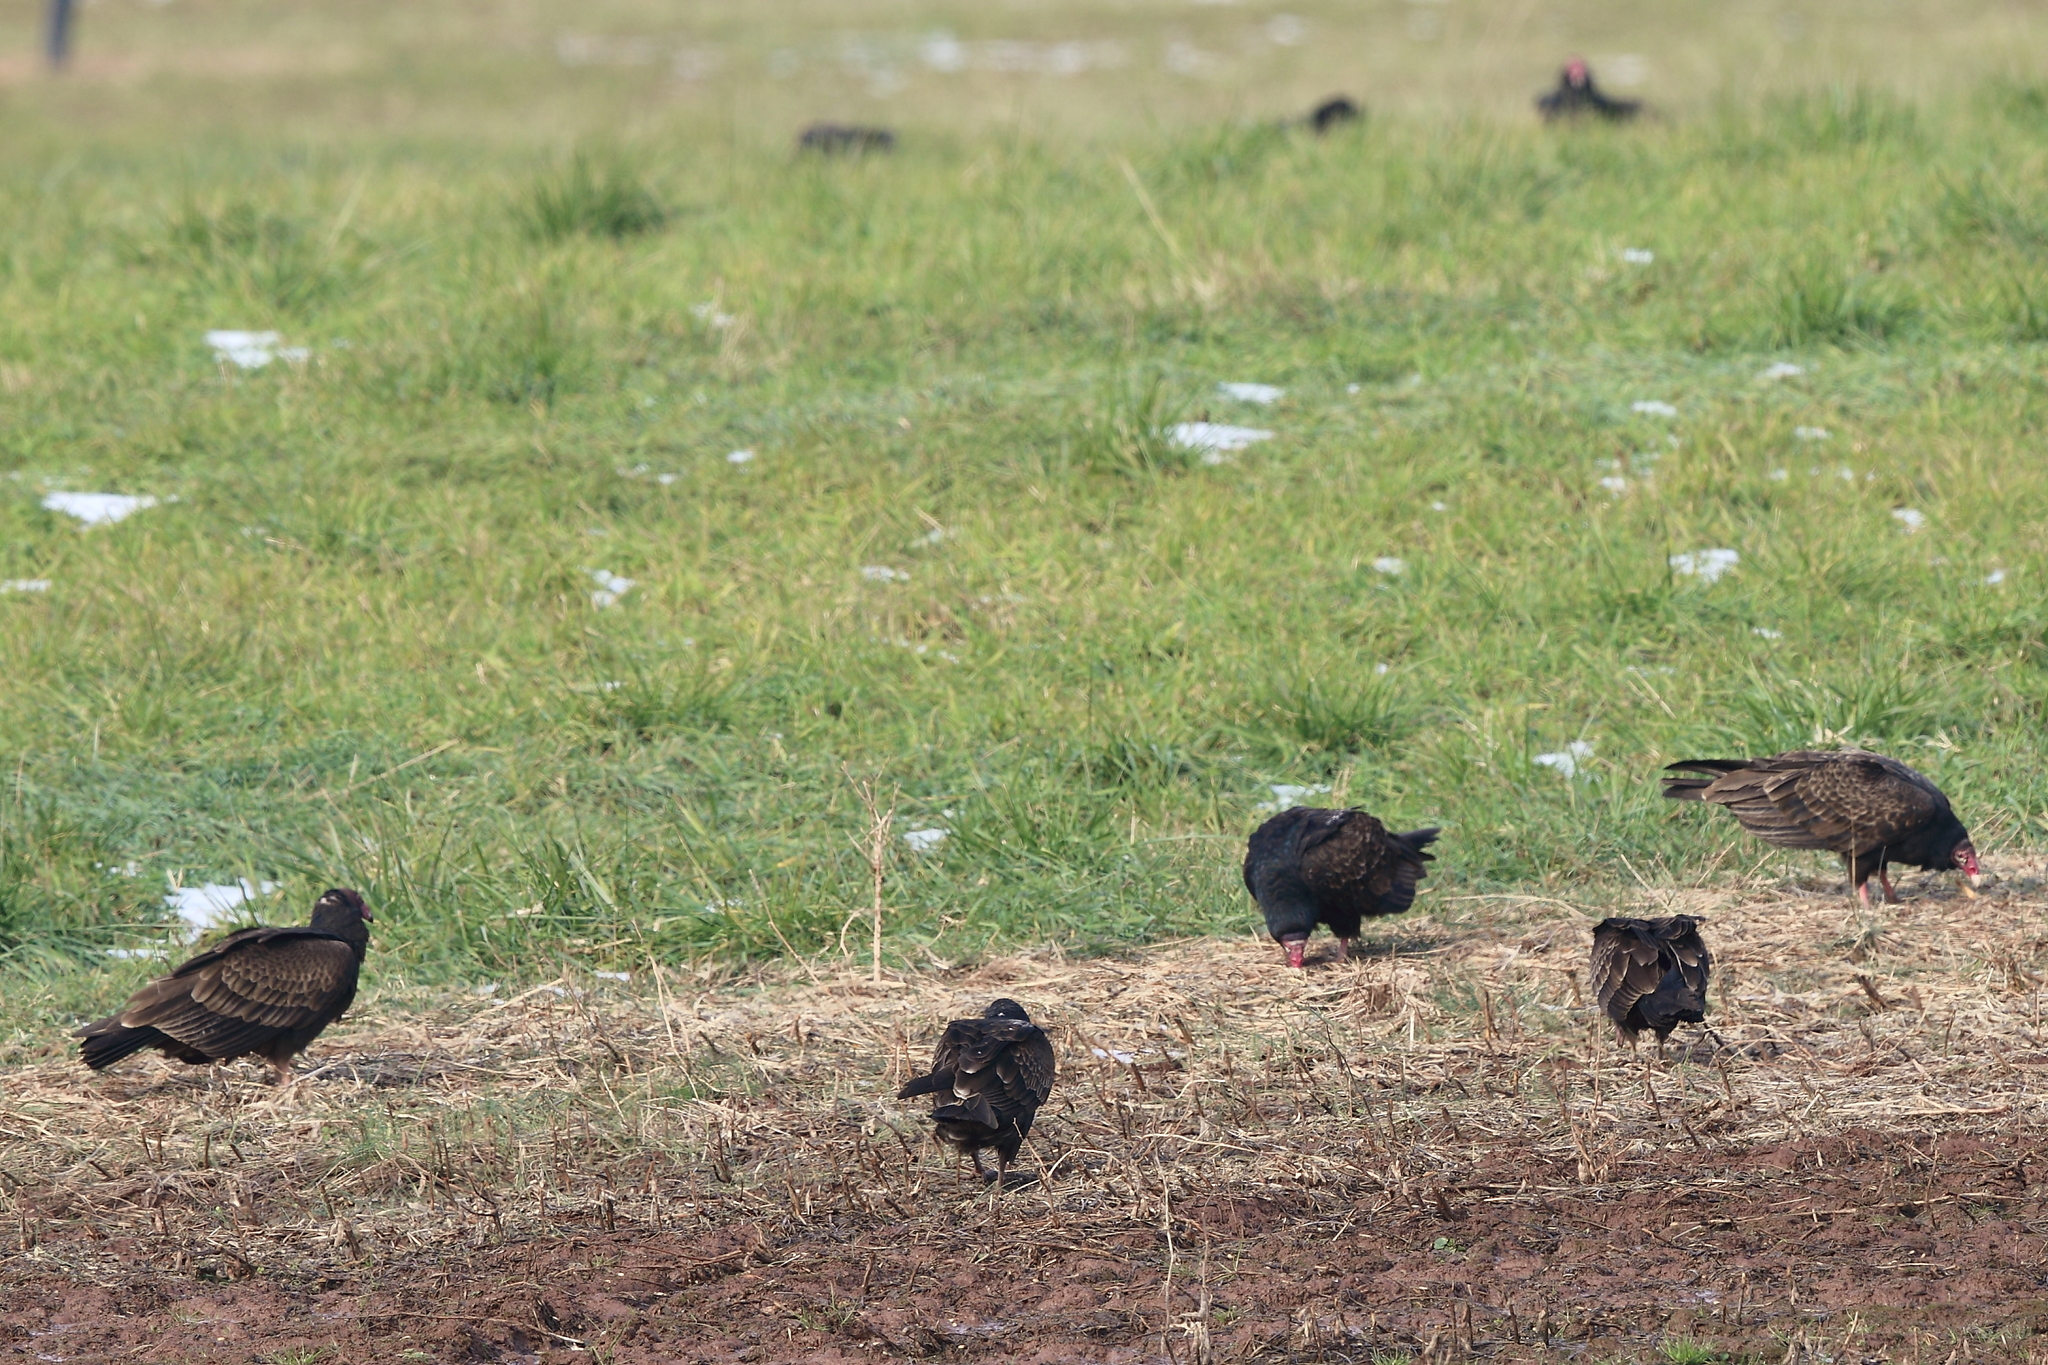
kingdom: Animalia
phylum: Chordata
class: Aves
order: Accipitriformes
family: Cathartidae
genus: Cathartes
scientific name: Cathartes aura
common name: Turkey vulture
